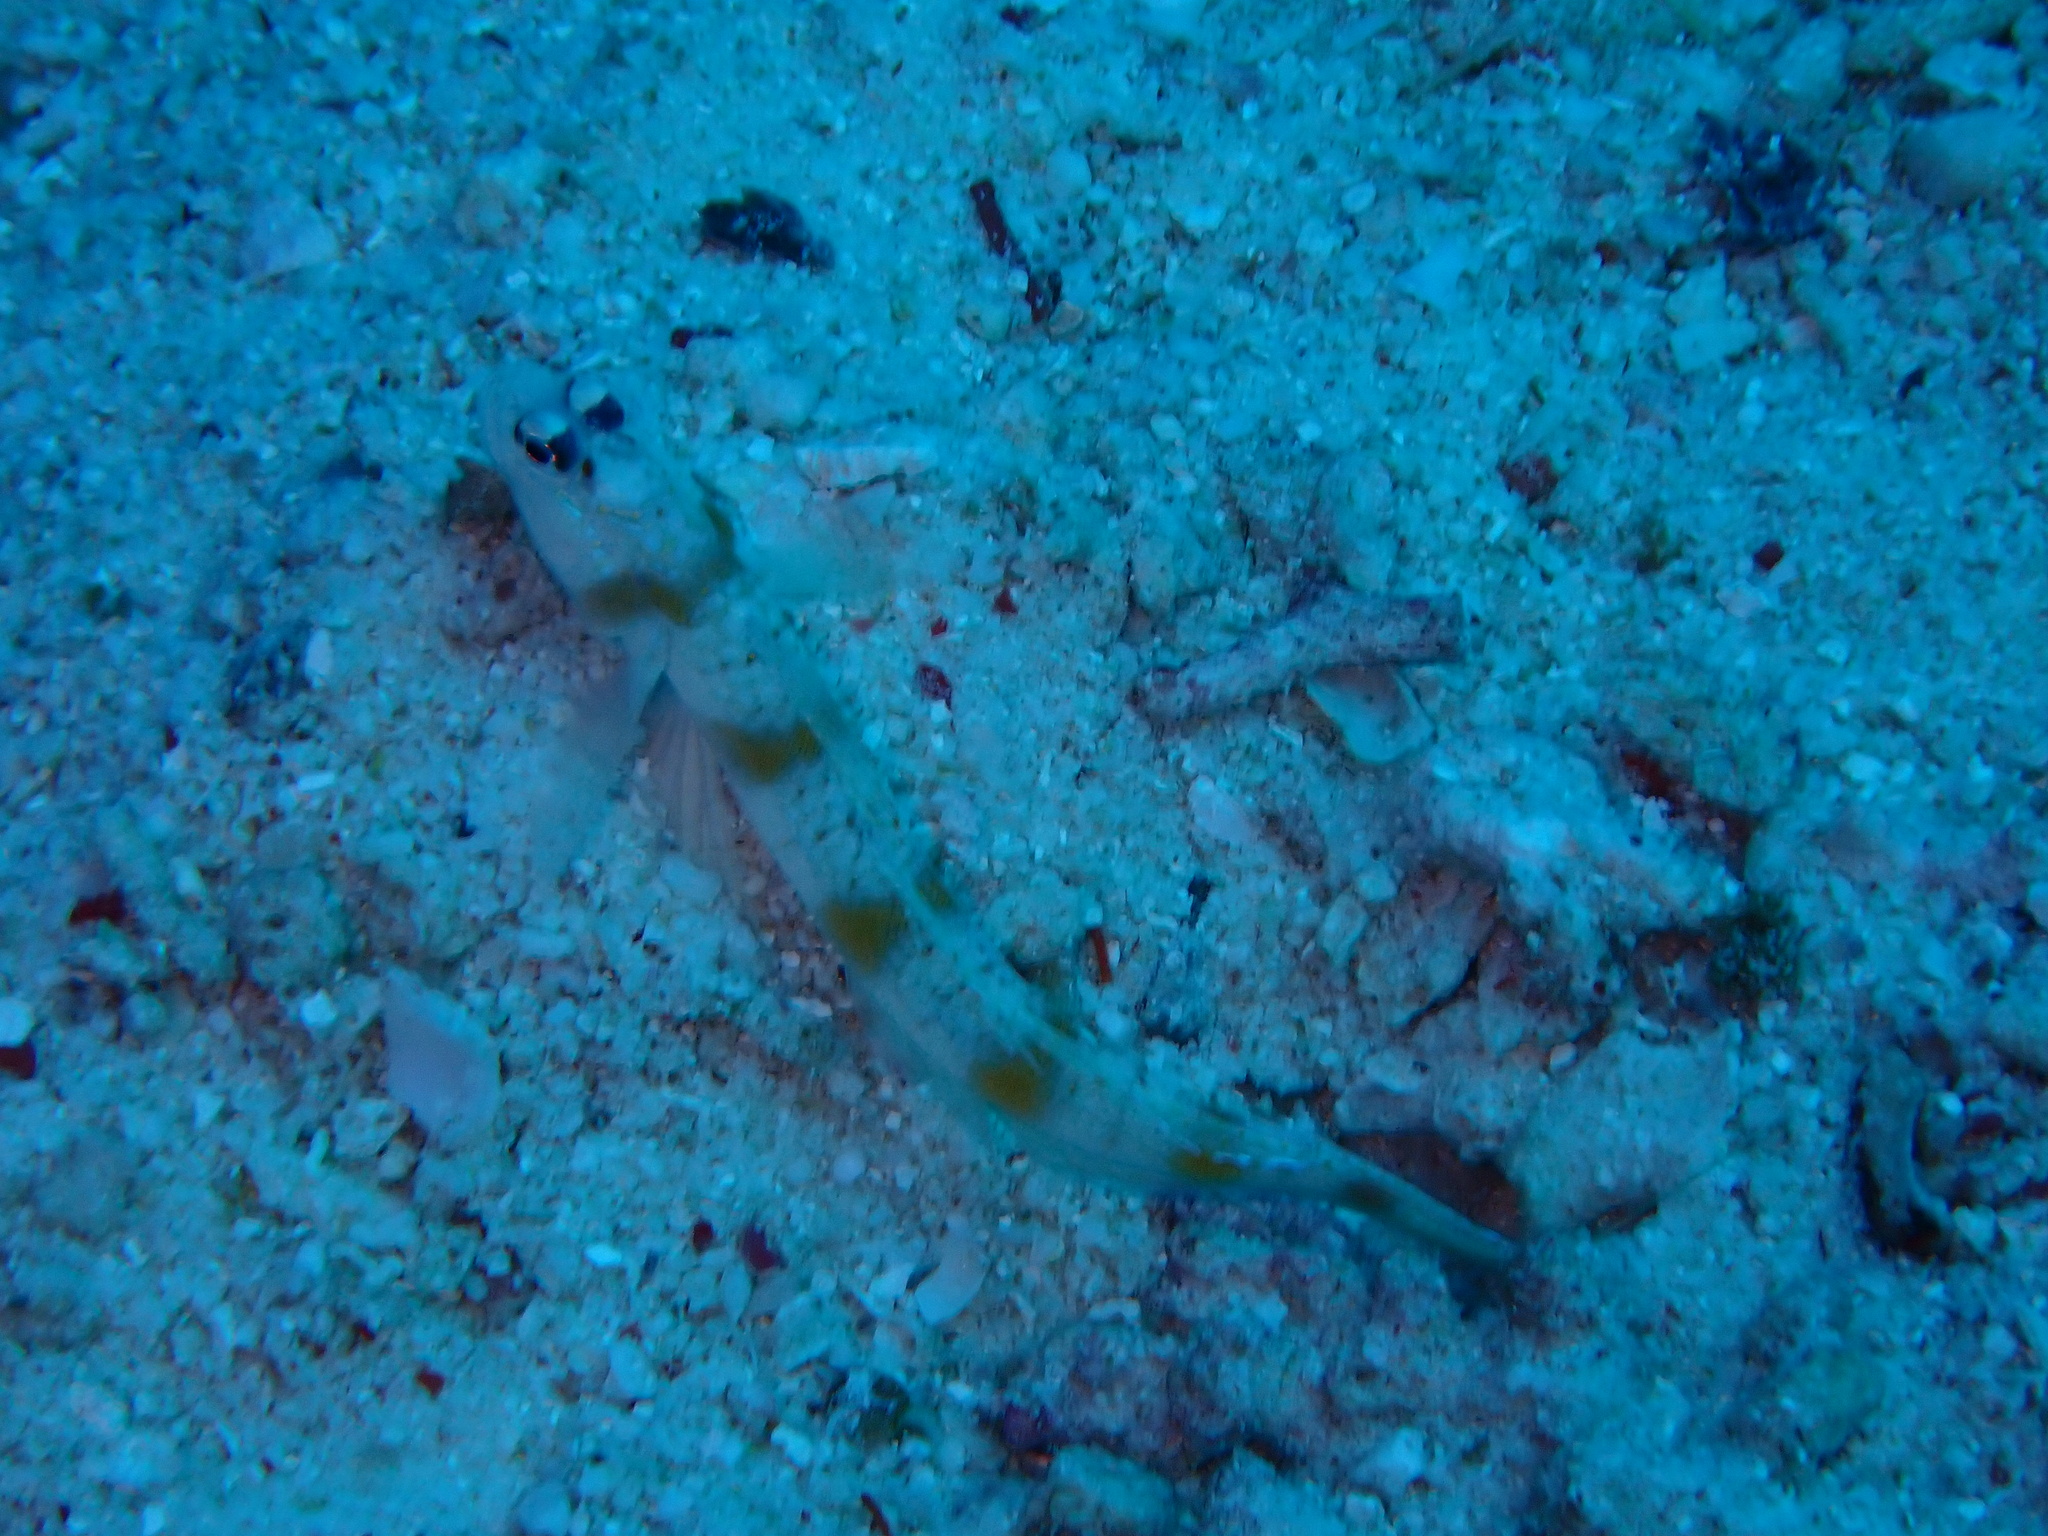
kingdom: Animalia
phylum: Chordata
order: Perciformes
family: Gobiidae
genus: Amblyeleotris
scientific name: Amblyeleotris rubrimarginata
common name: Redmargin shrimpgoby
